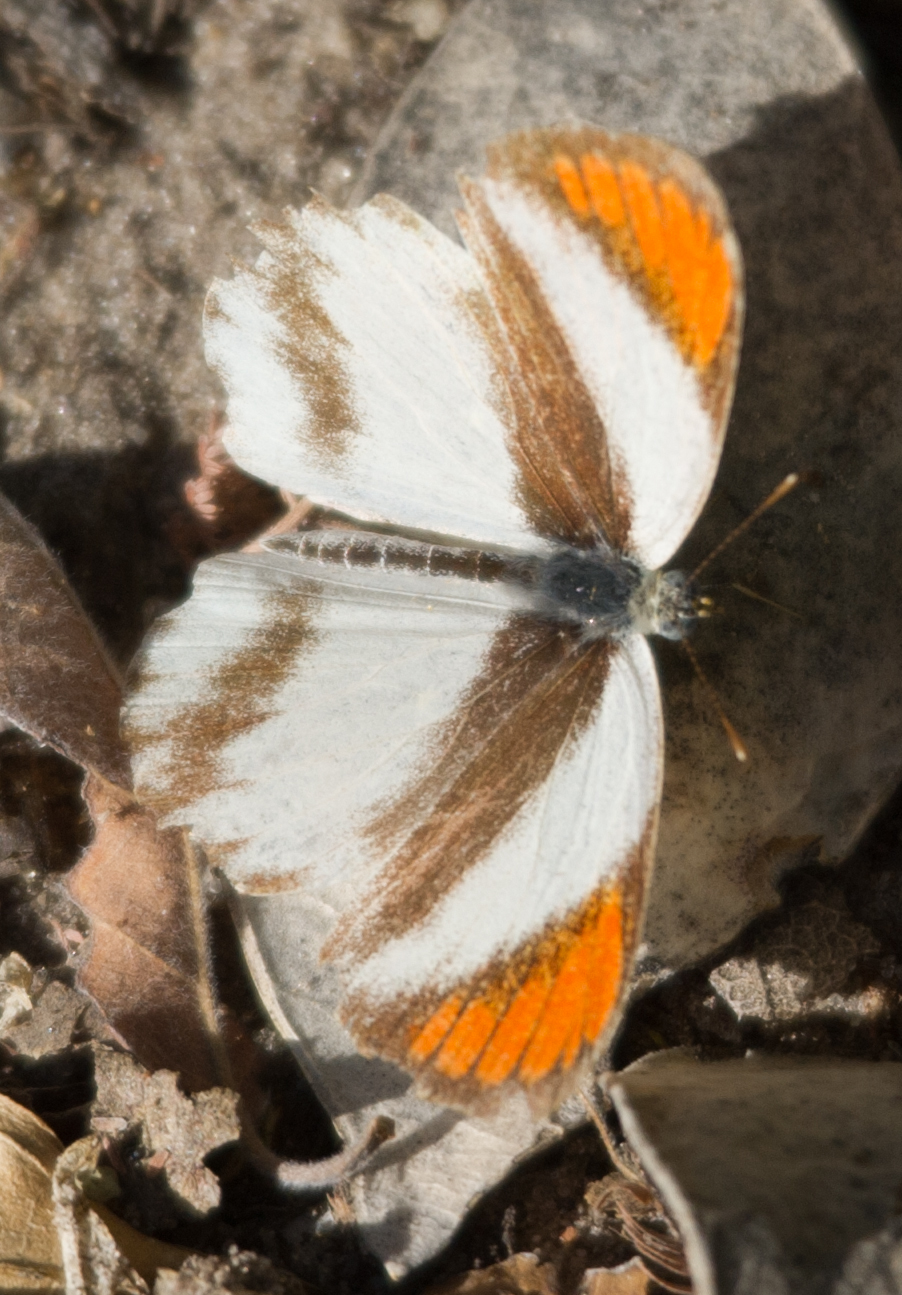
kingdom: Animalia
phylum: Arthropoda
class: Insecta
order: Lepidoptera
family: Pieridae
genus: Colotis
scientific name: Colotis euippe
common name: Round-winged orange tip
